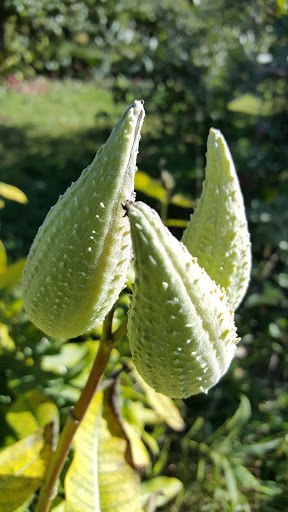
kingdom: Plantae
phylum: Tracheophyta
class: Magnoliopsida
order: Gentianales
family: Apocynaceae
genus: Asclepias
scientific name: Asclepias syriaca
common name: Common milkweed
